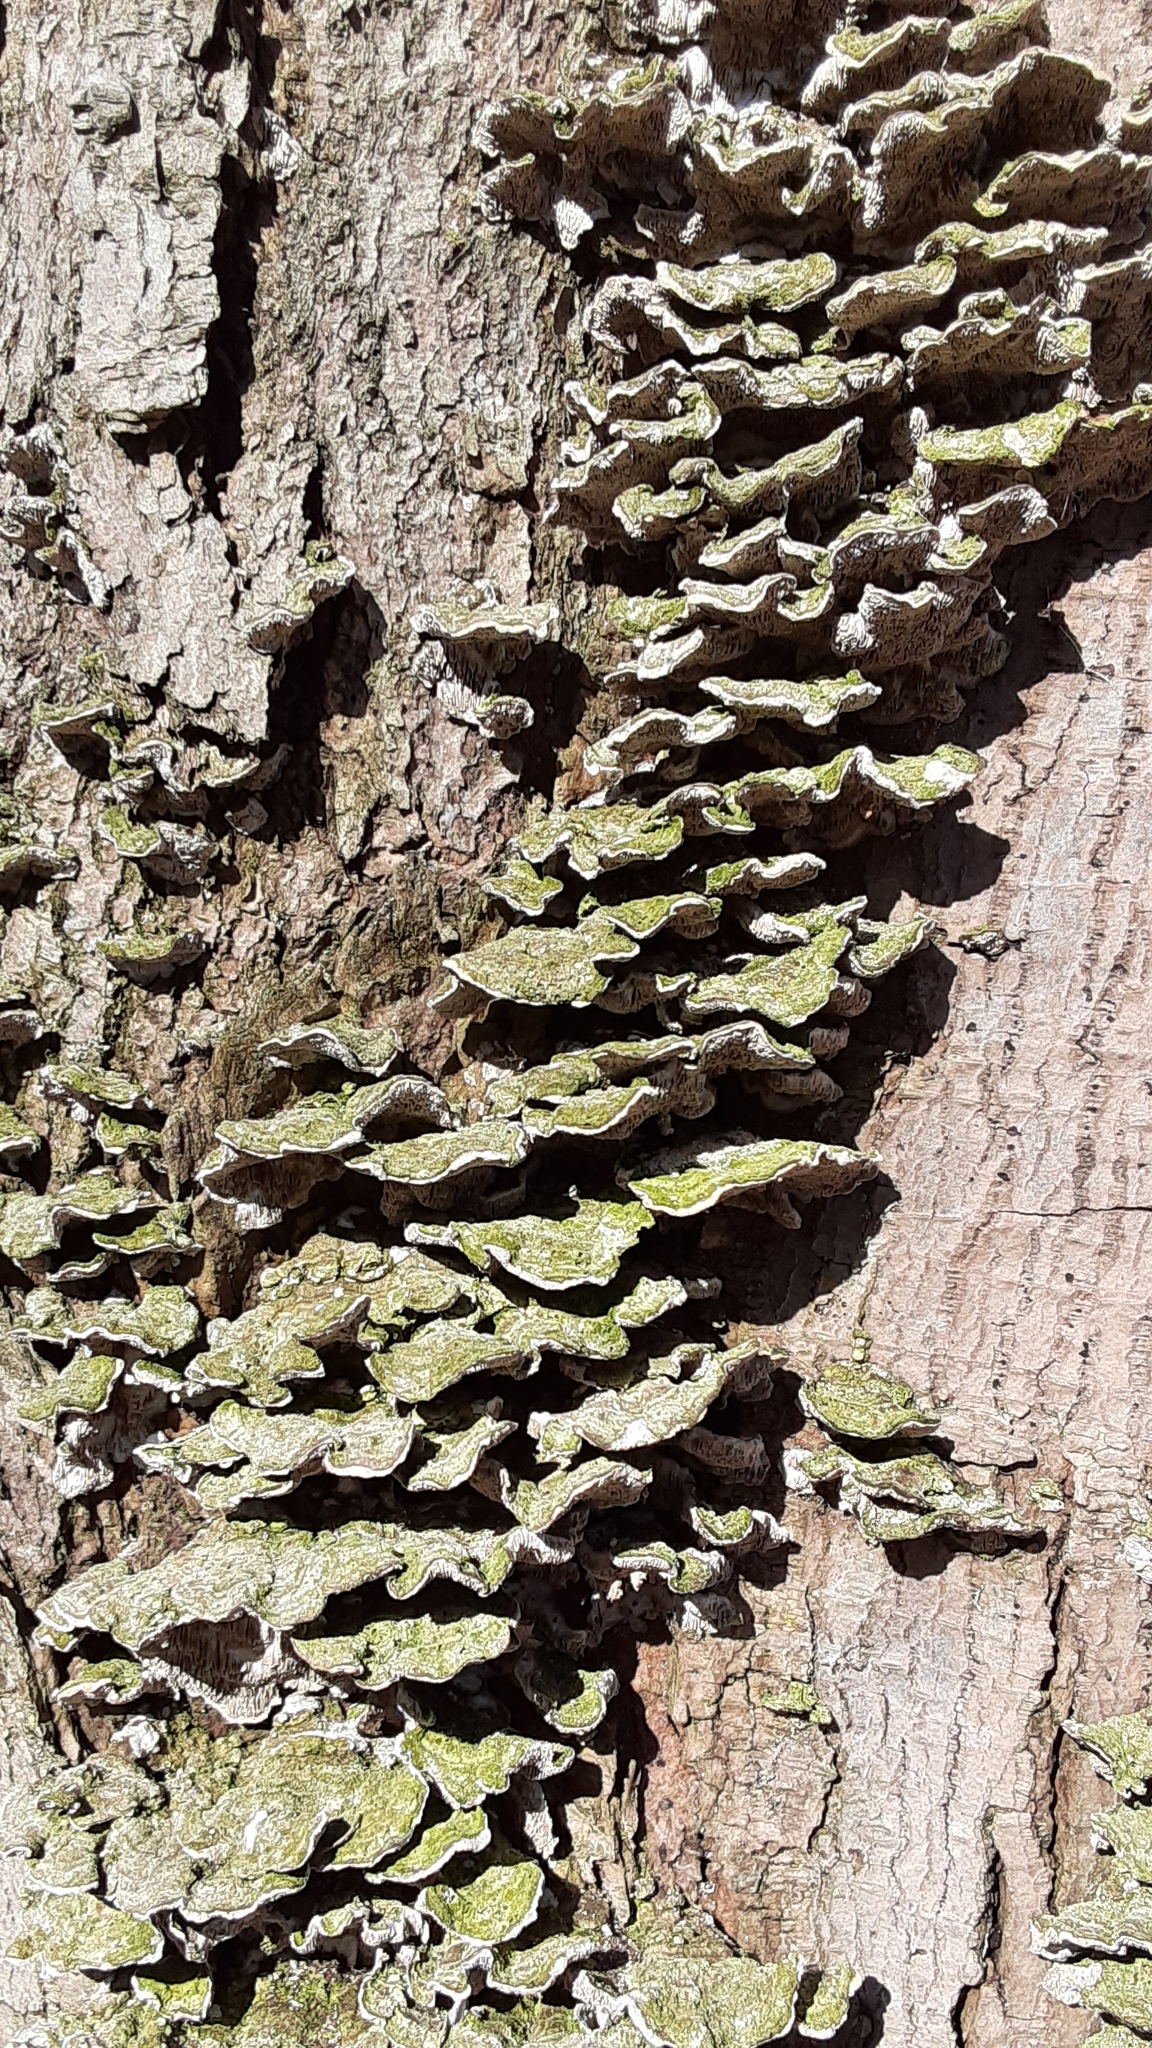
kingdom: Fungi
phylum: Basidiomycota
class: Agaricomycetes
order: Polyporales
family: Cerrenaceae
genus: Cerrena
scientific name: Cerrena unicolor
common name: Mossy maze polypore
